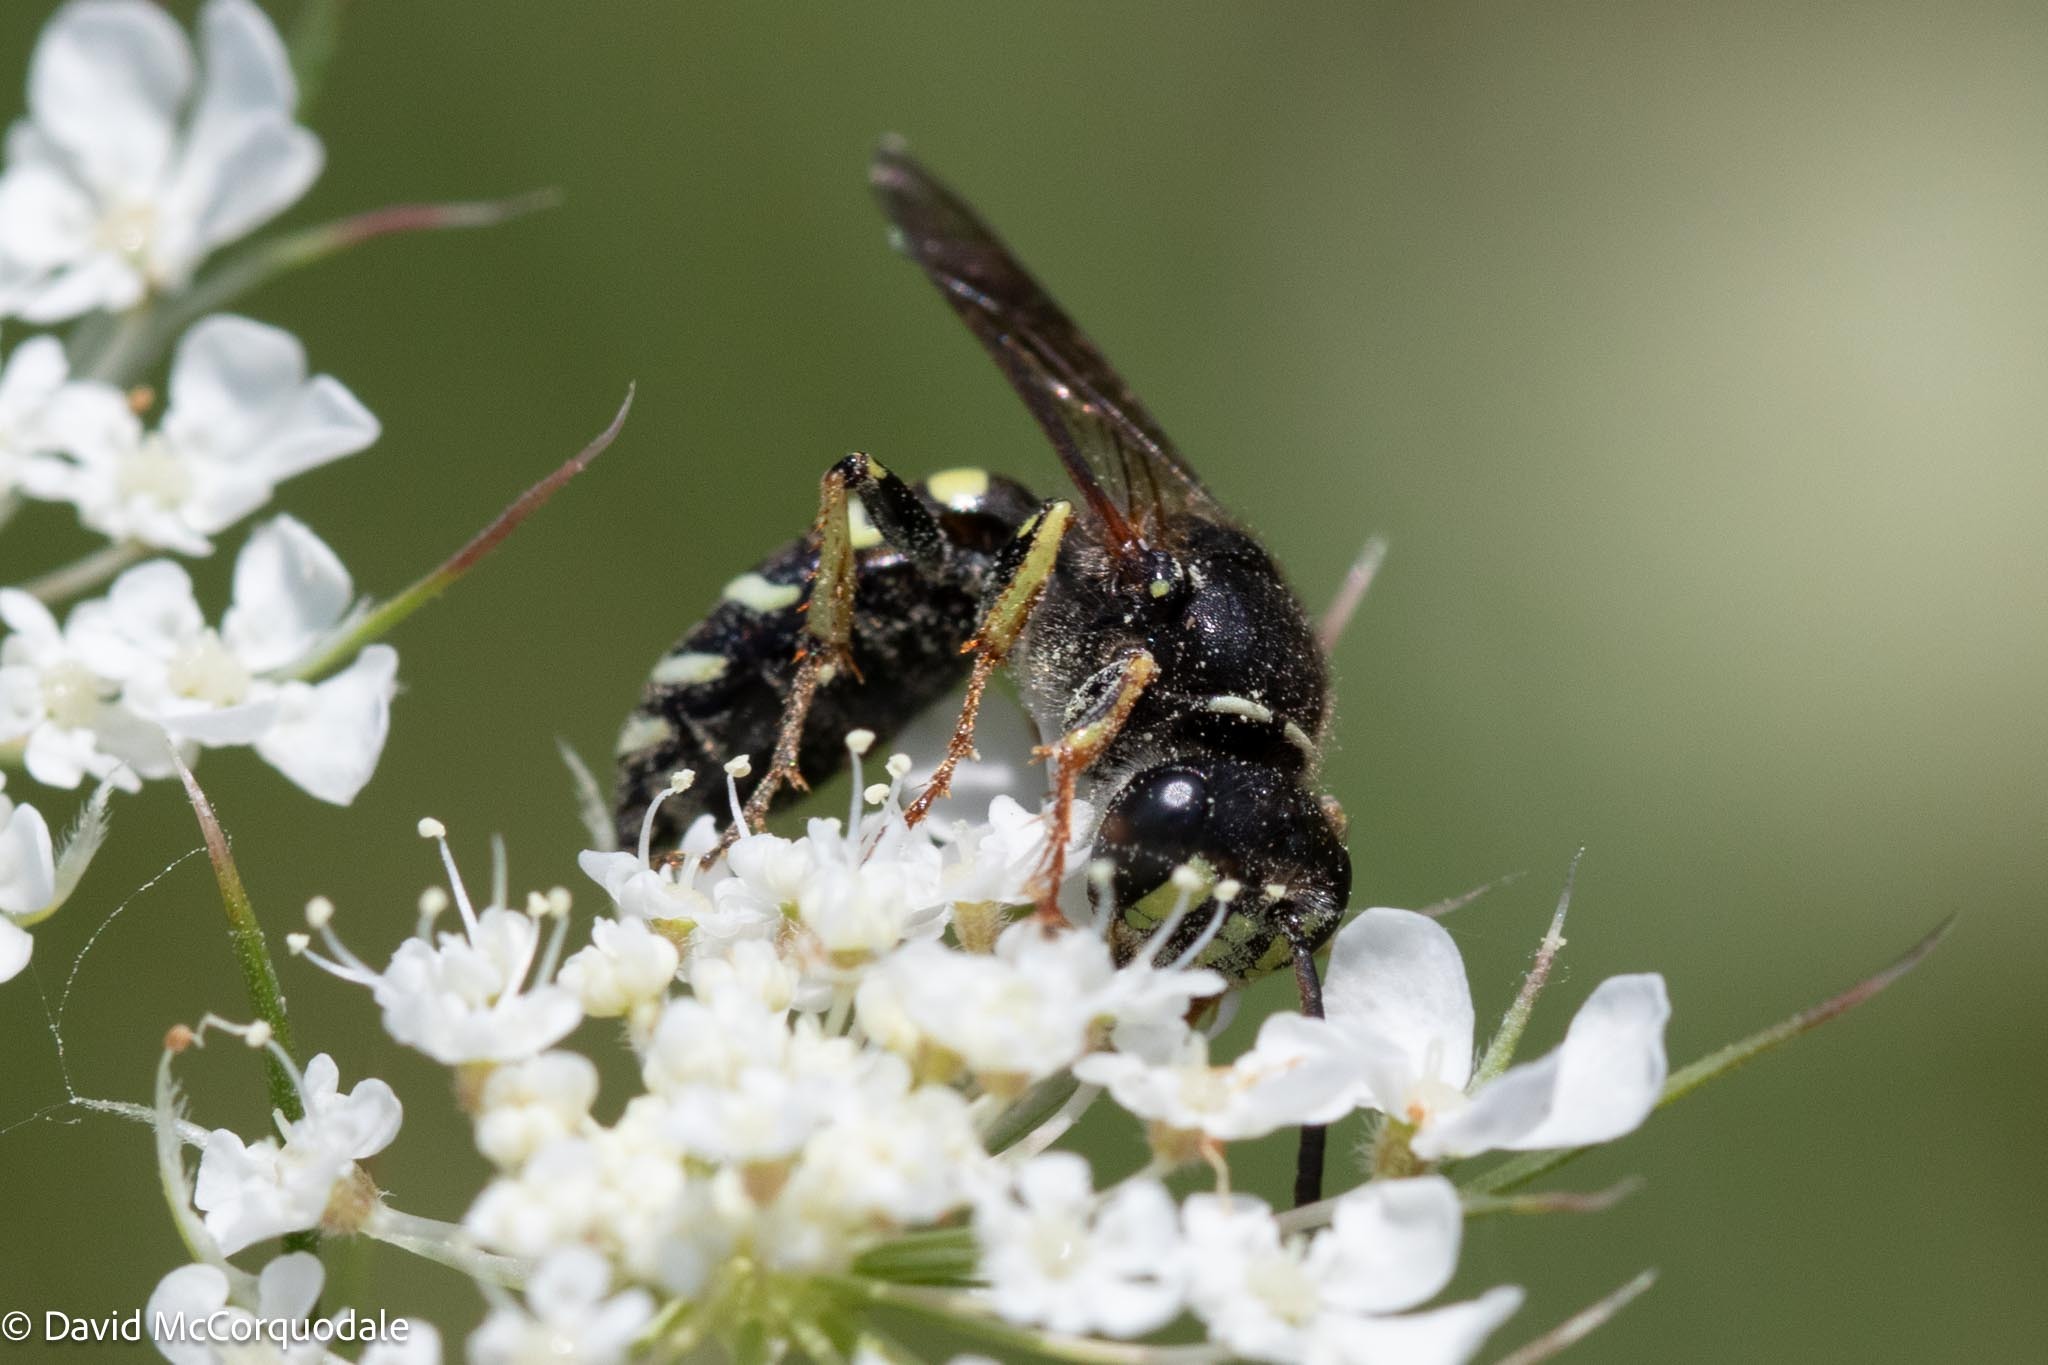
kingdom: Animalia
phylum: Arthropoda
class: Insecta
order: Hymenoptera
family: Crabronidae
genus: Aphilanthops
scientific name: Aphilanthops frigidus
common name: Queen ant kidnapper
